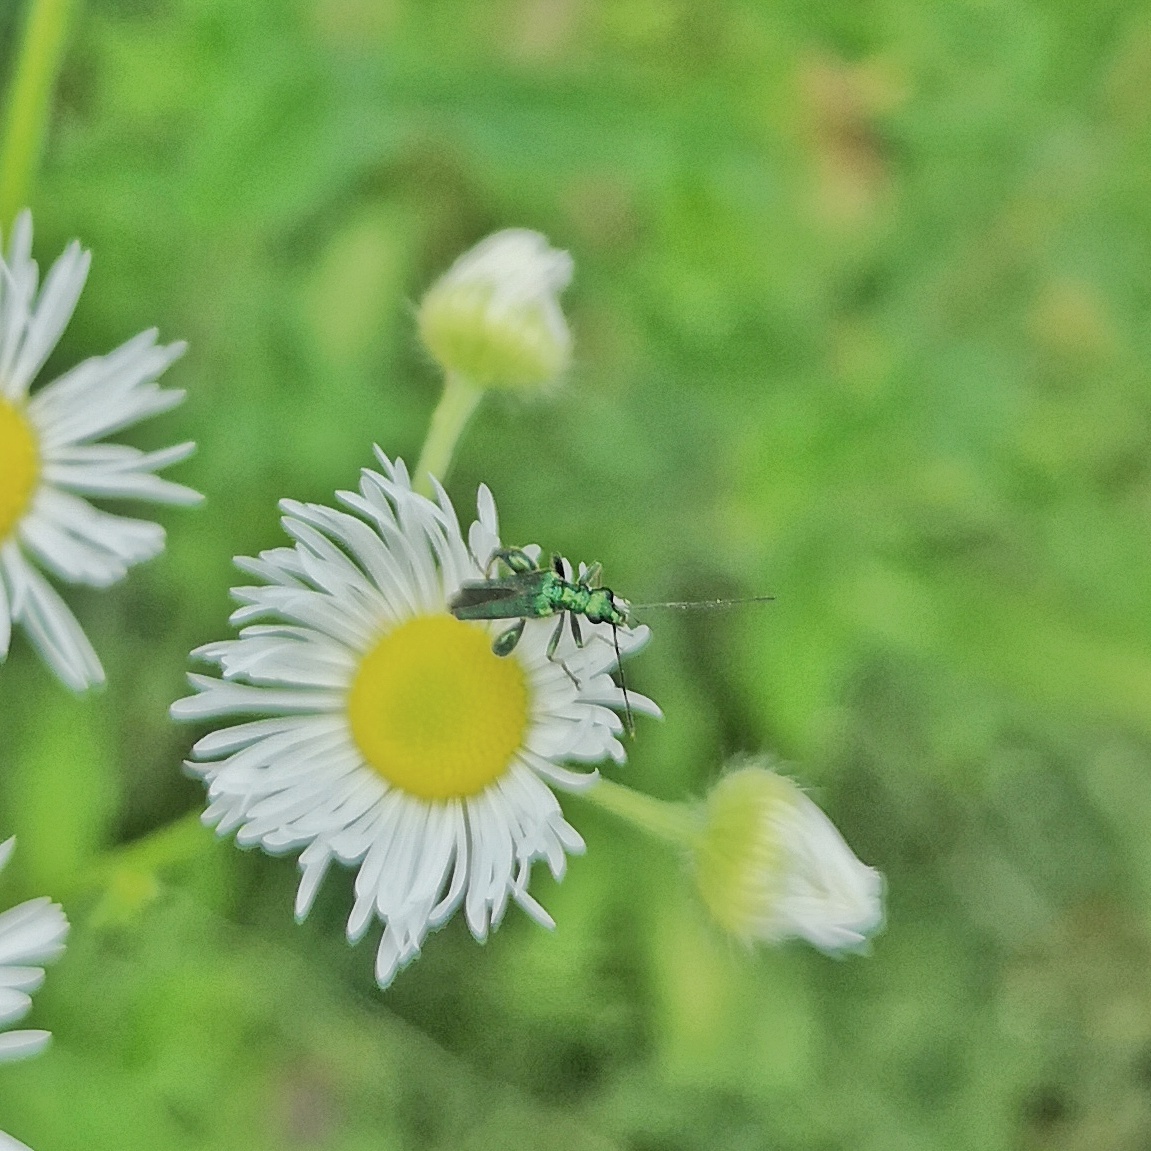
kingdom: Animalia
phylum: Arthropoda
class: Insecta
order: Coleoptera
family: Oedemeridae
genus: Oedemera
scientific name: Oedemera nobilis
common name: Swollen-thighed beetle
